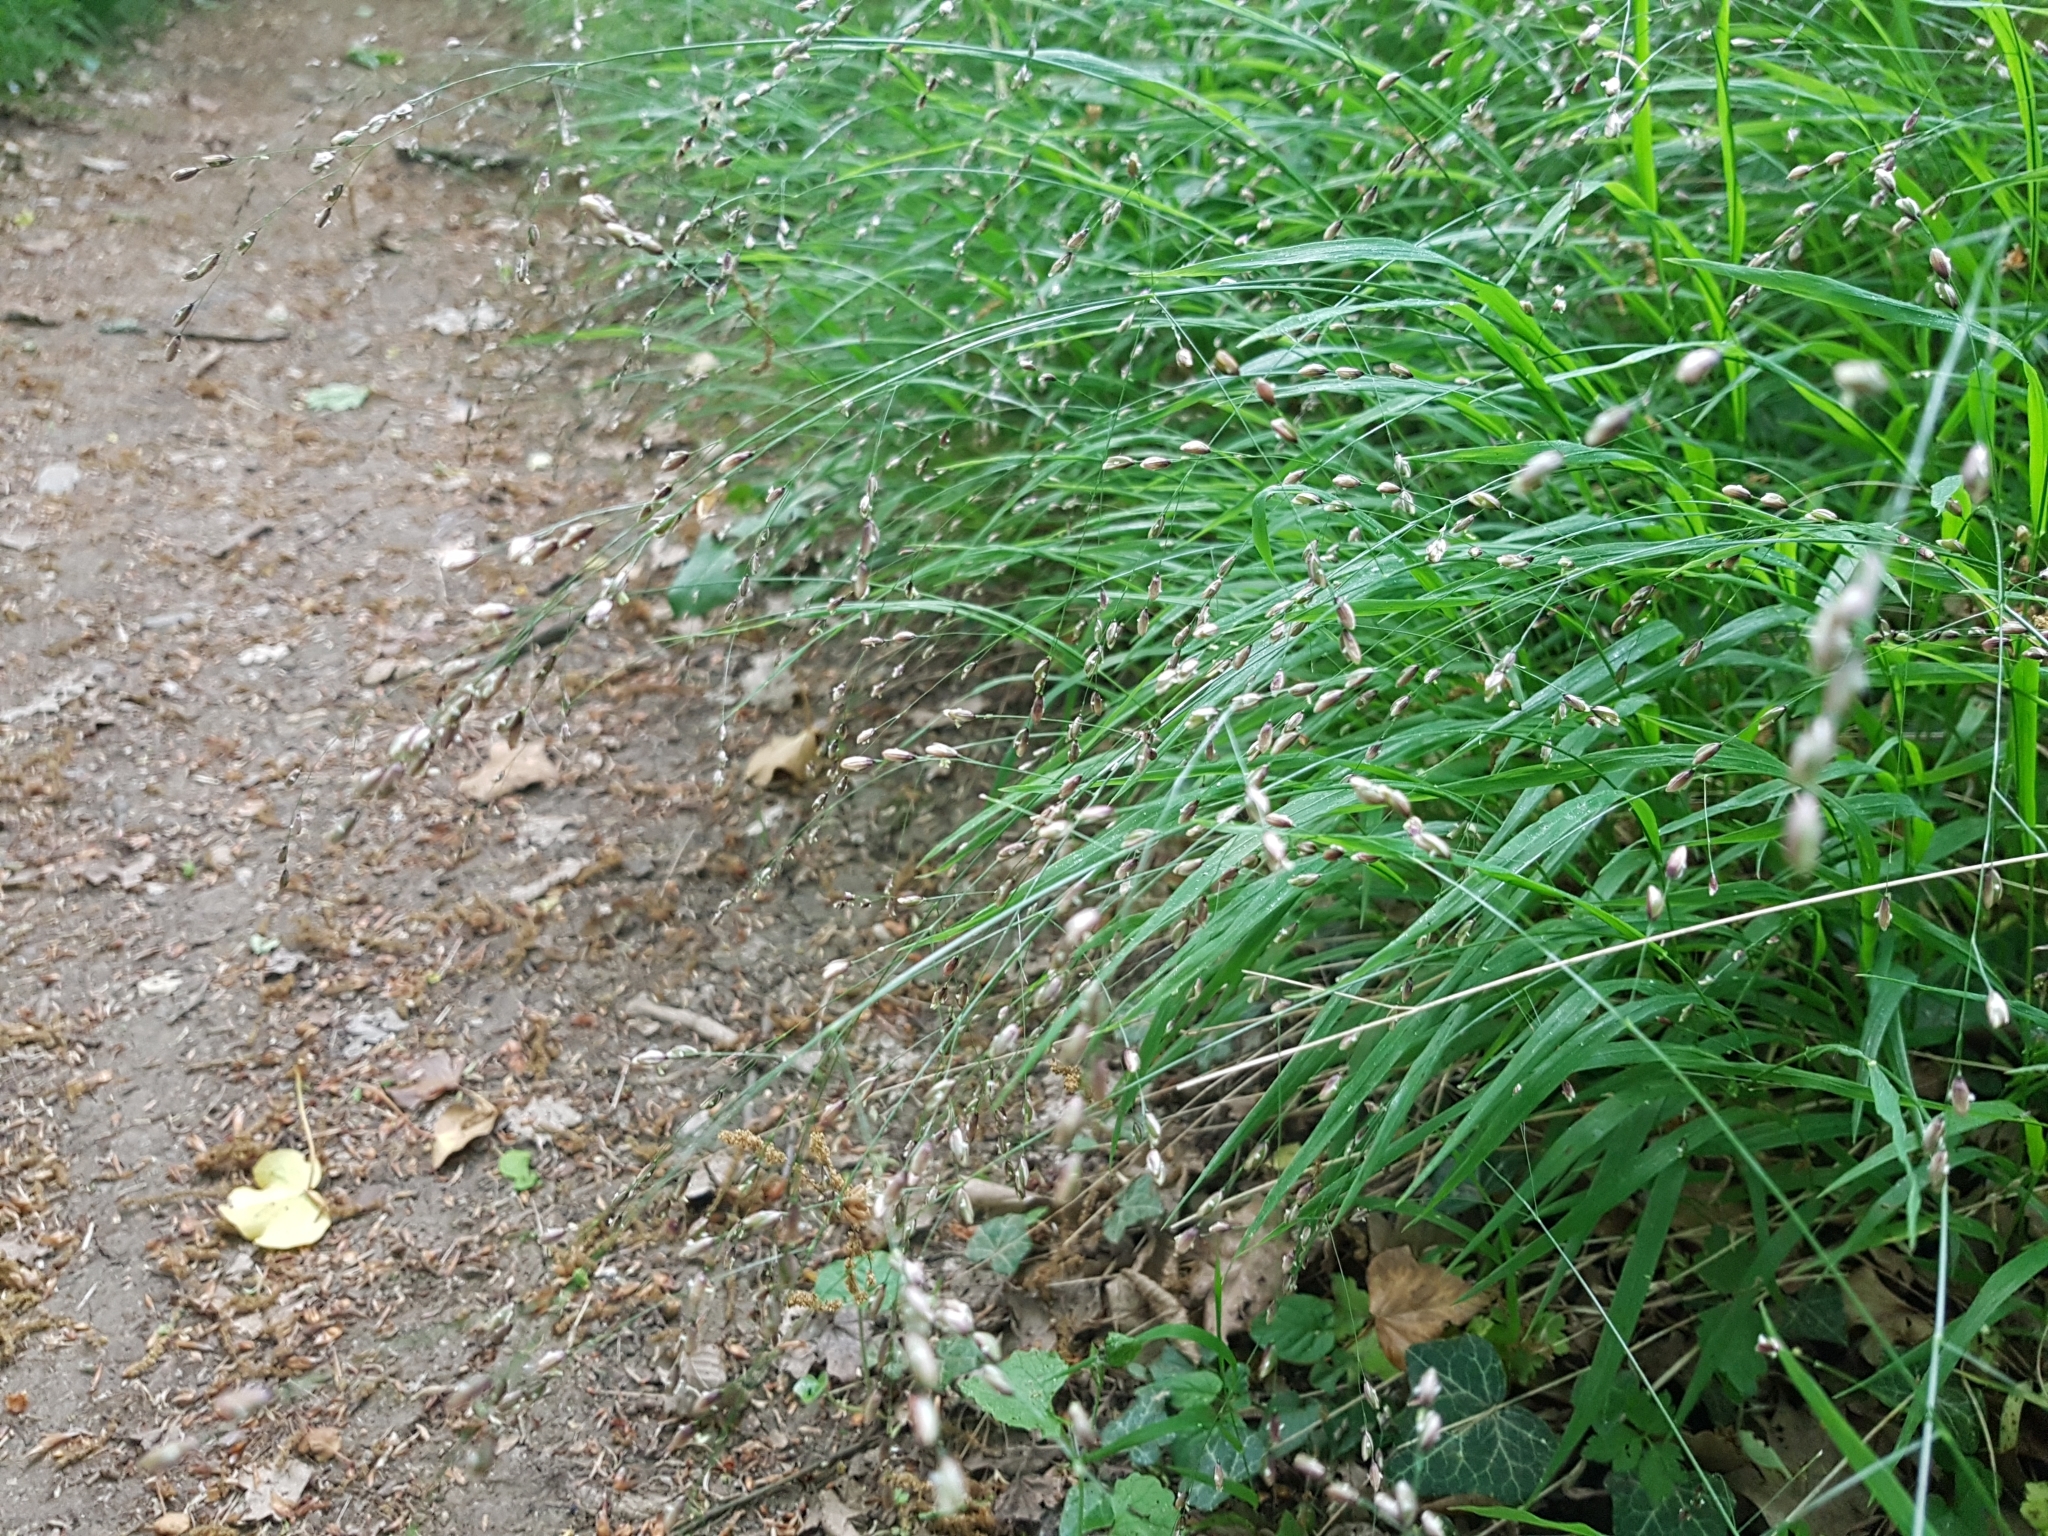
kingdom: Plantae
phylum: Tracheophyta
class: Liliopsida
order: Poales
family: Poaceae
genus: Melica
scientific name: Melica uniflora
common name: Wood melick
